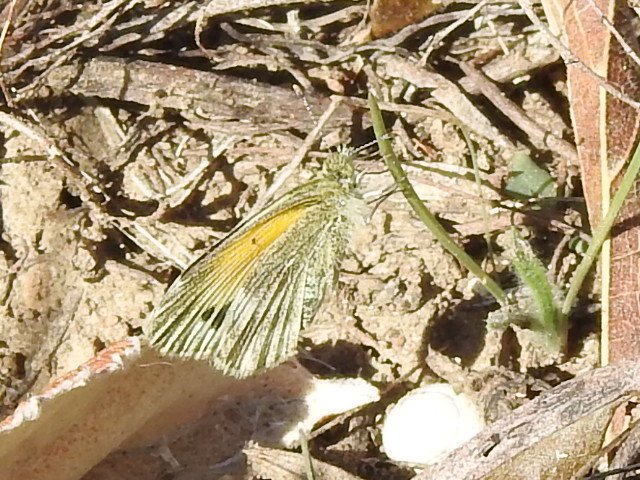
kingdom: Animalia
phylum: Arthropoda
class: Insecta
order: Lepidoptera
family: Pieridae
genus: Nathalis
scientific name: Nathalis iole
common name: Dainty sulphur
